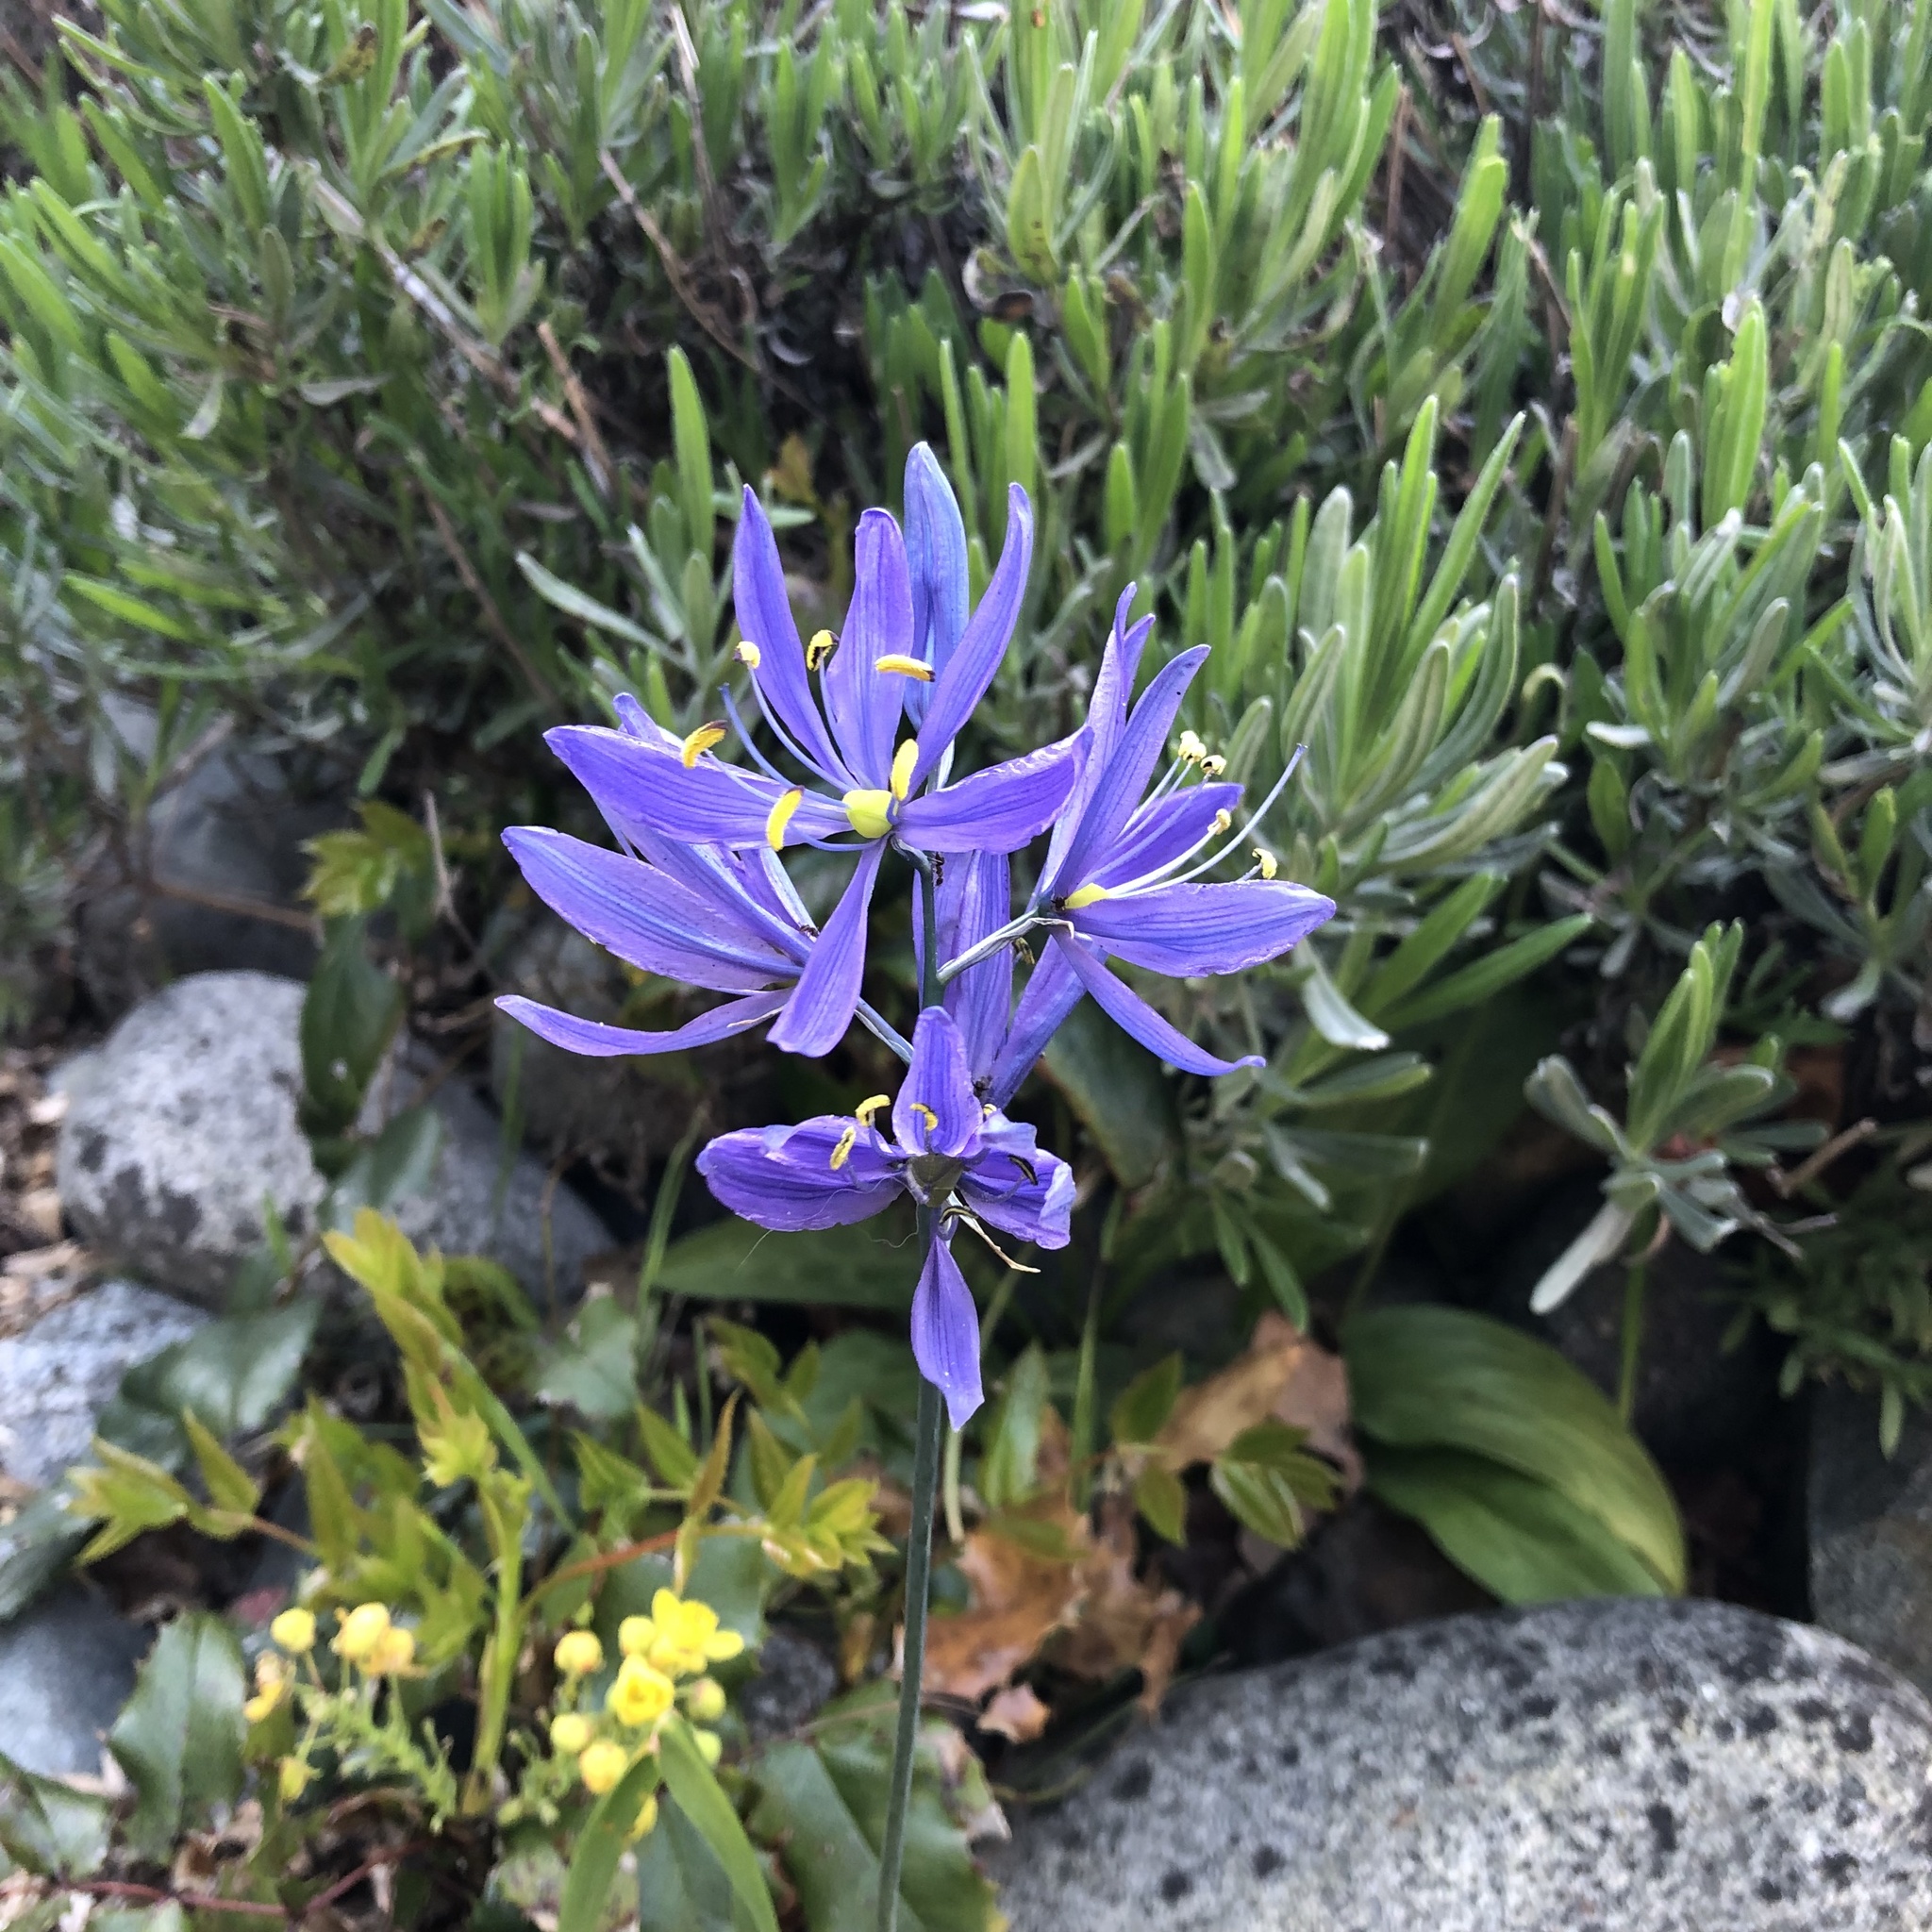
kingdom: Plantae
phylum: Tracheophyta
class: Liliopsida
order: Asparagales
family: Asparagaceae
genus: Camassia
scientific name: Camassia quamash
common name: Common camas
